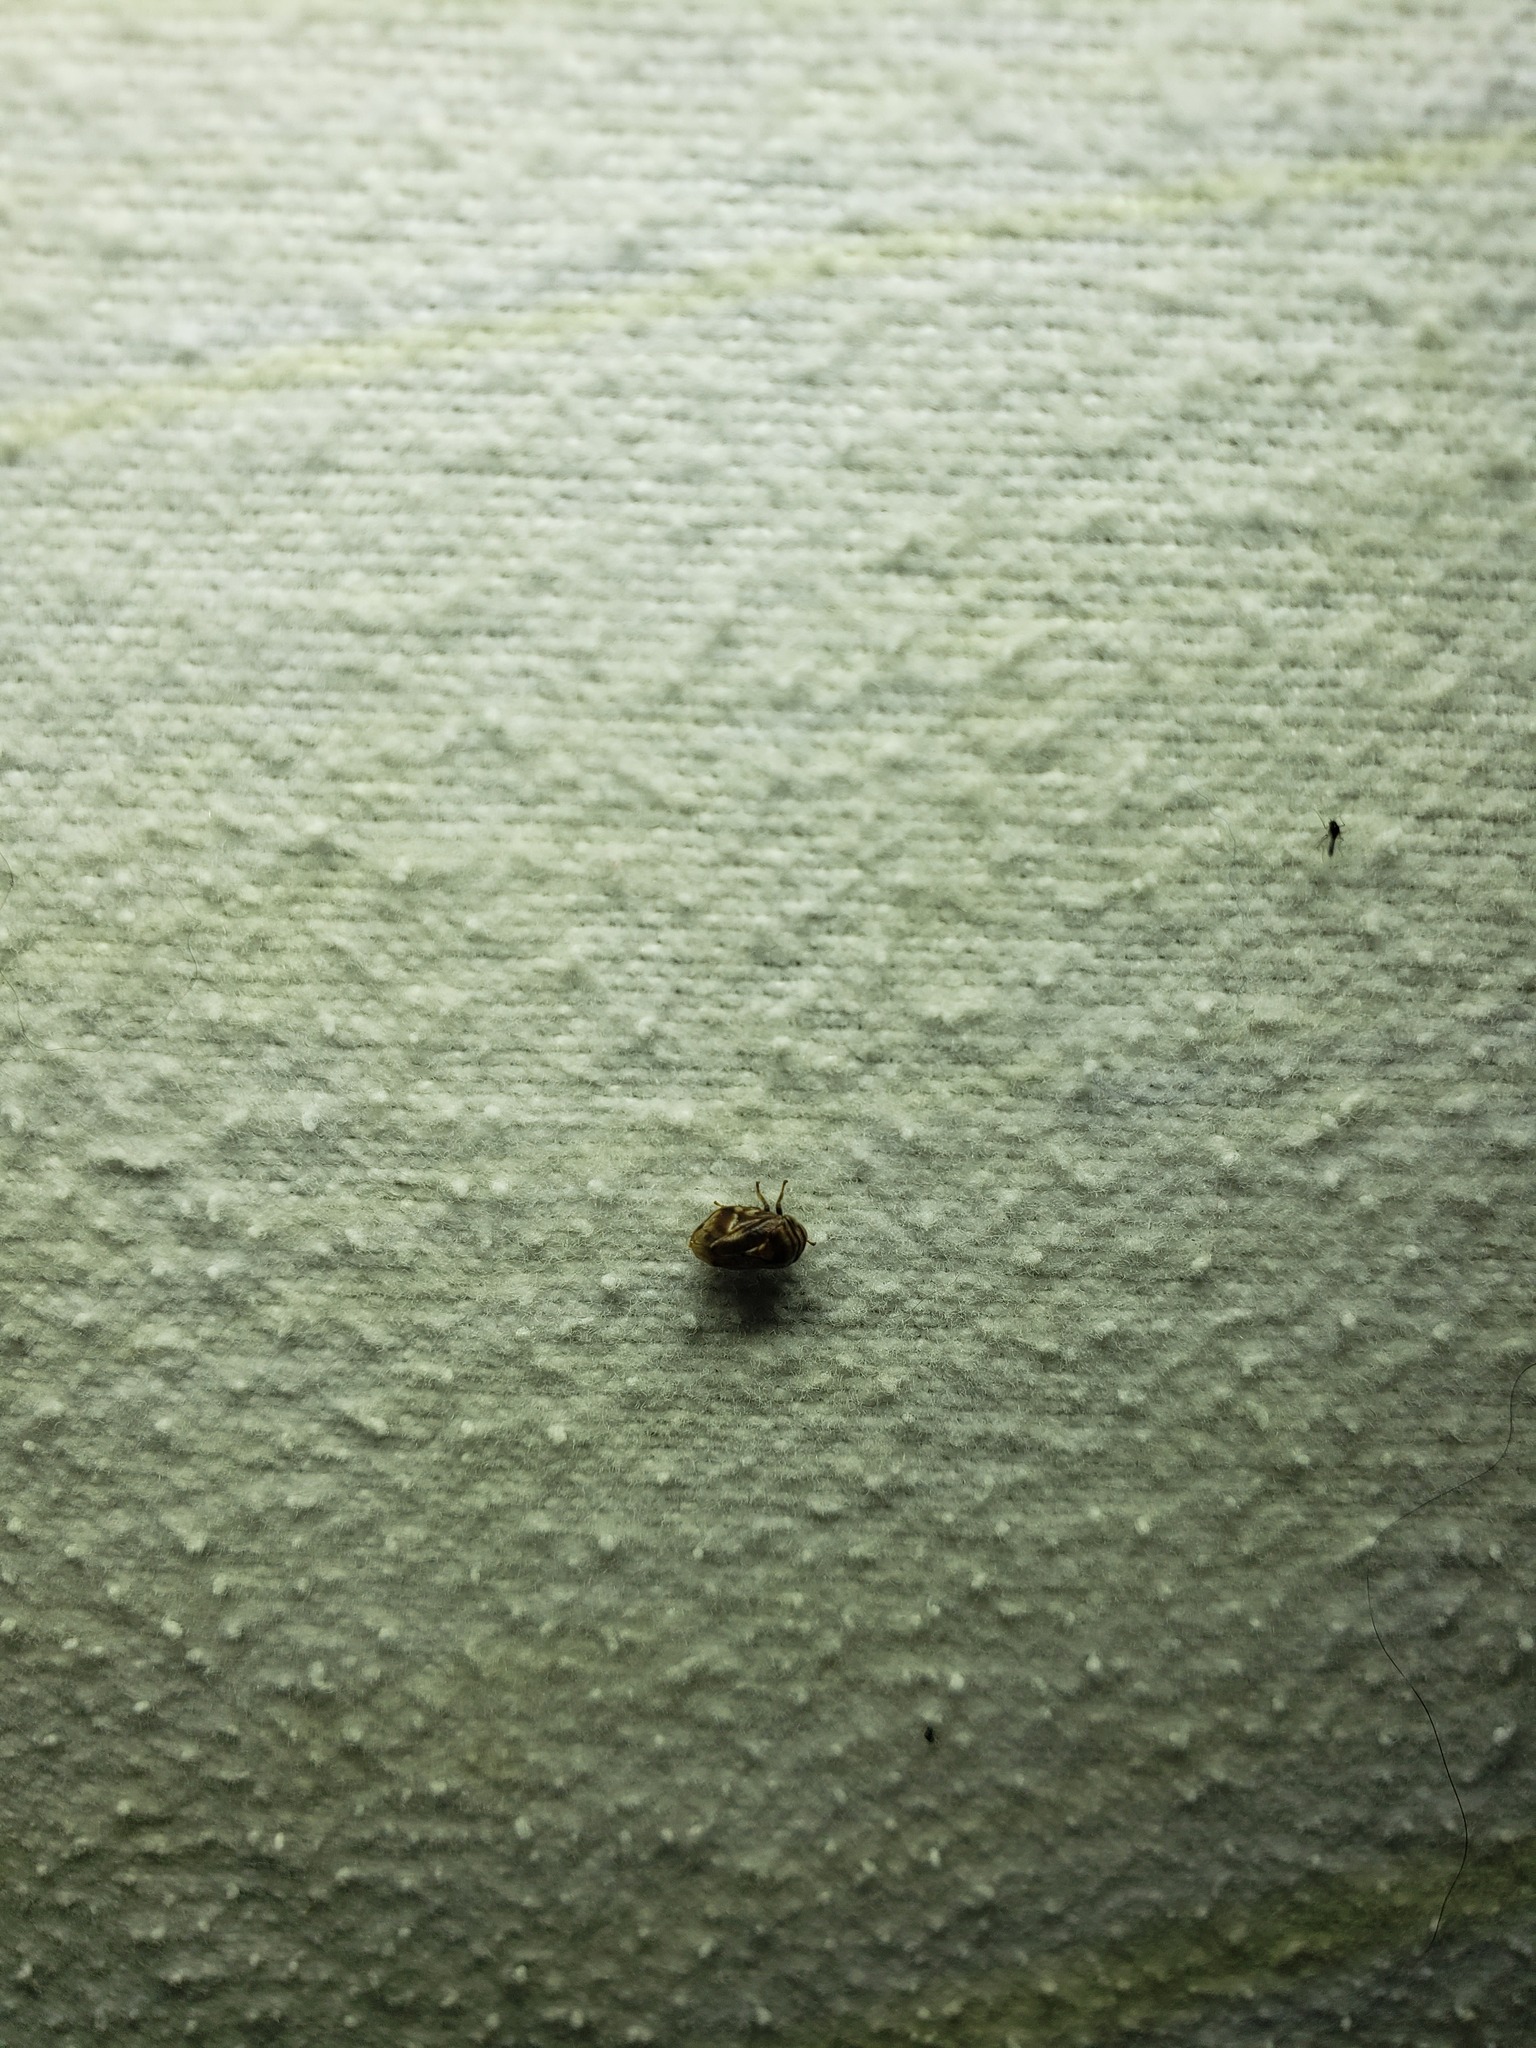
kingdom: Animalia
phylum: Arthropoda
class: Insecta
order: Hemiptera
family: Clastopteridae
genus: Clastoptera
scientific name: Clastoptera obtusa
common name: Alder spittlebug
